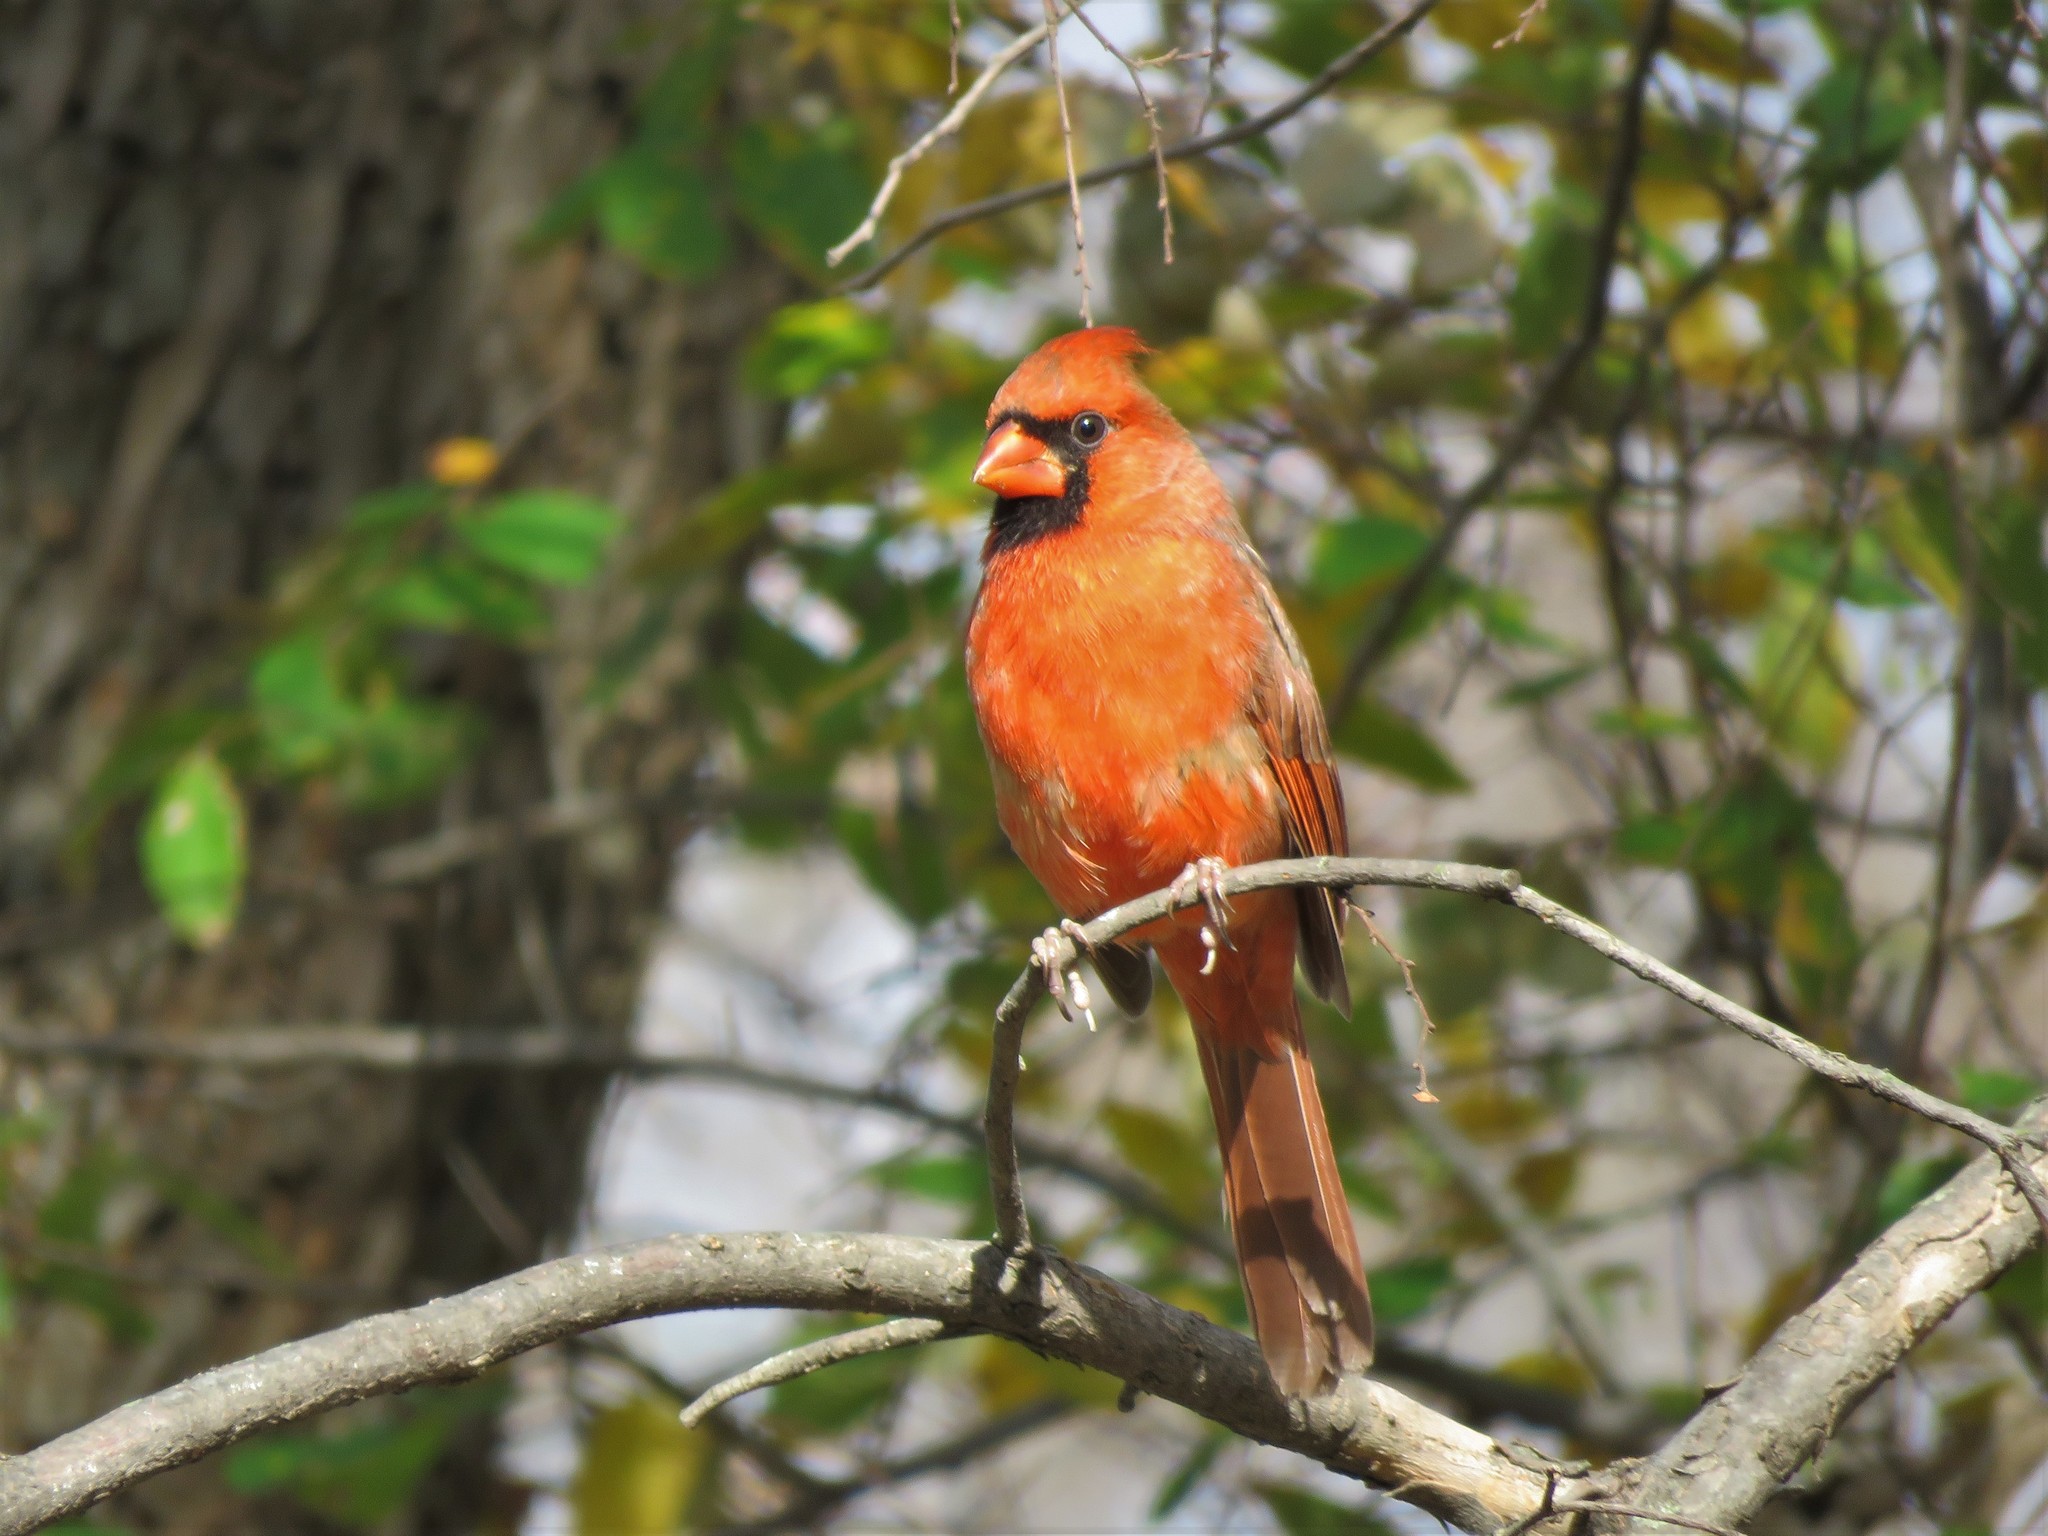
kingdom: Animalia
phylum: Chordata
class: Aves
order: Passeriformes
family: Cardinalidae
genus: Cardinalis
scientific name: Cardinalis cardinalis
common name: Northern cardinal
